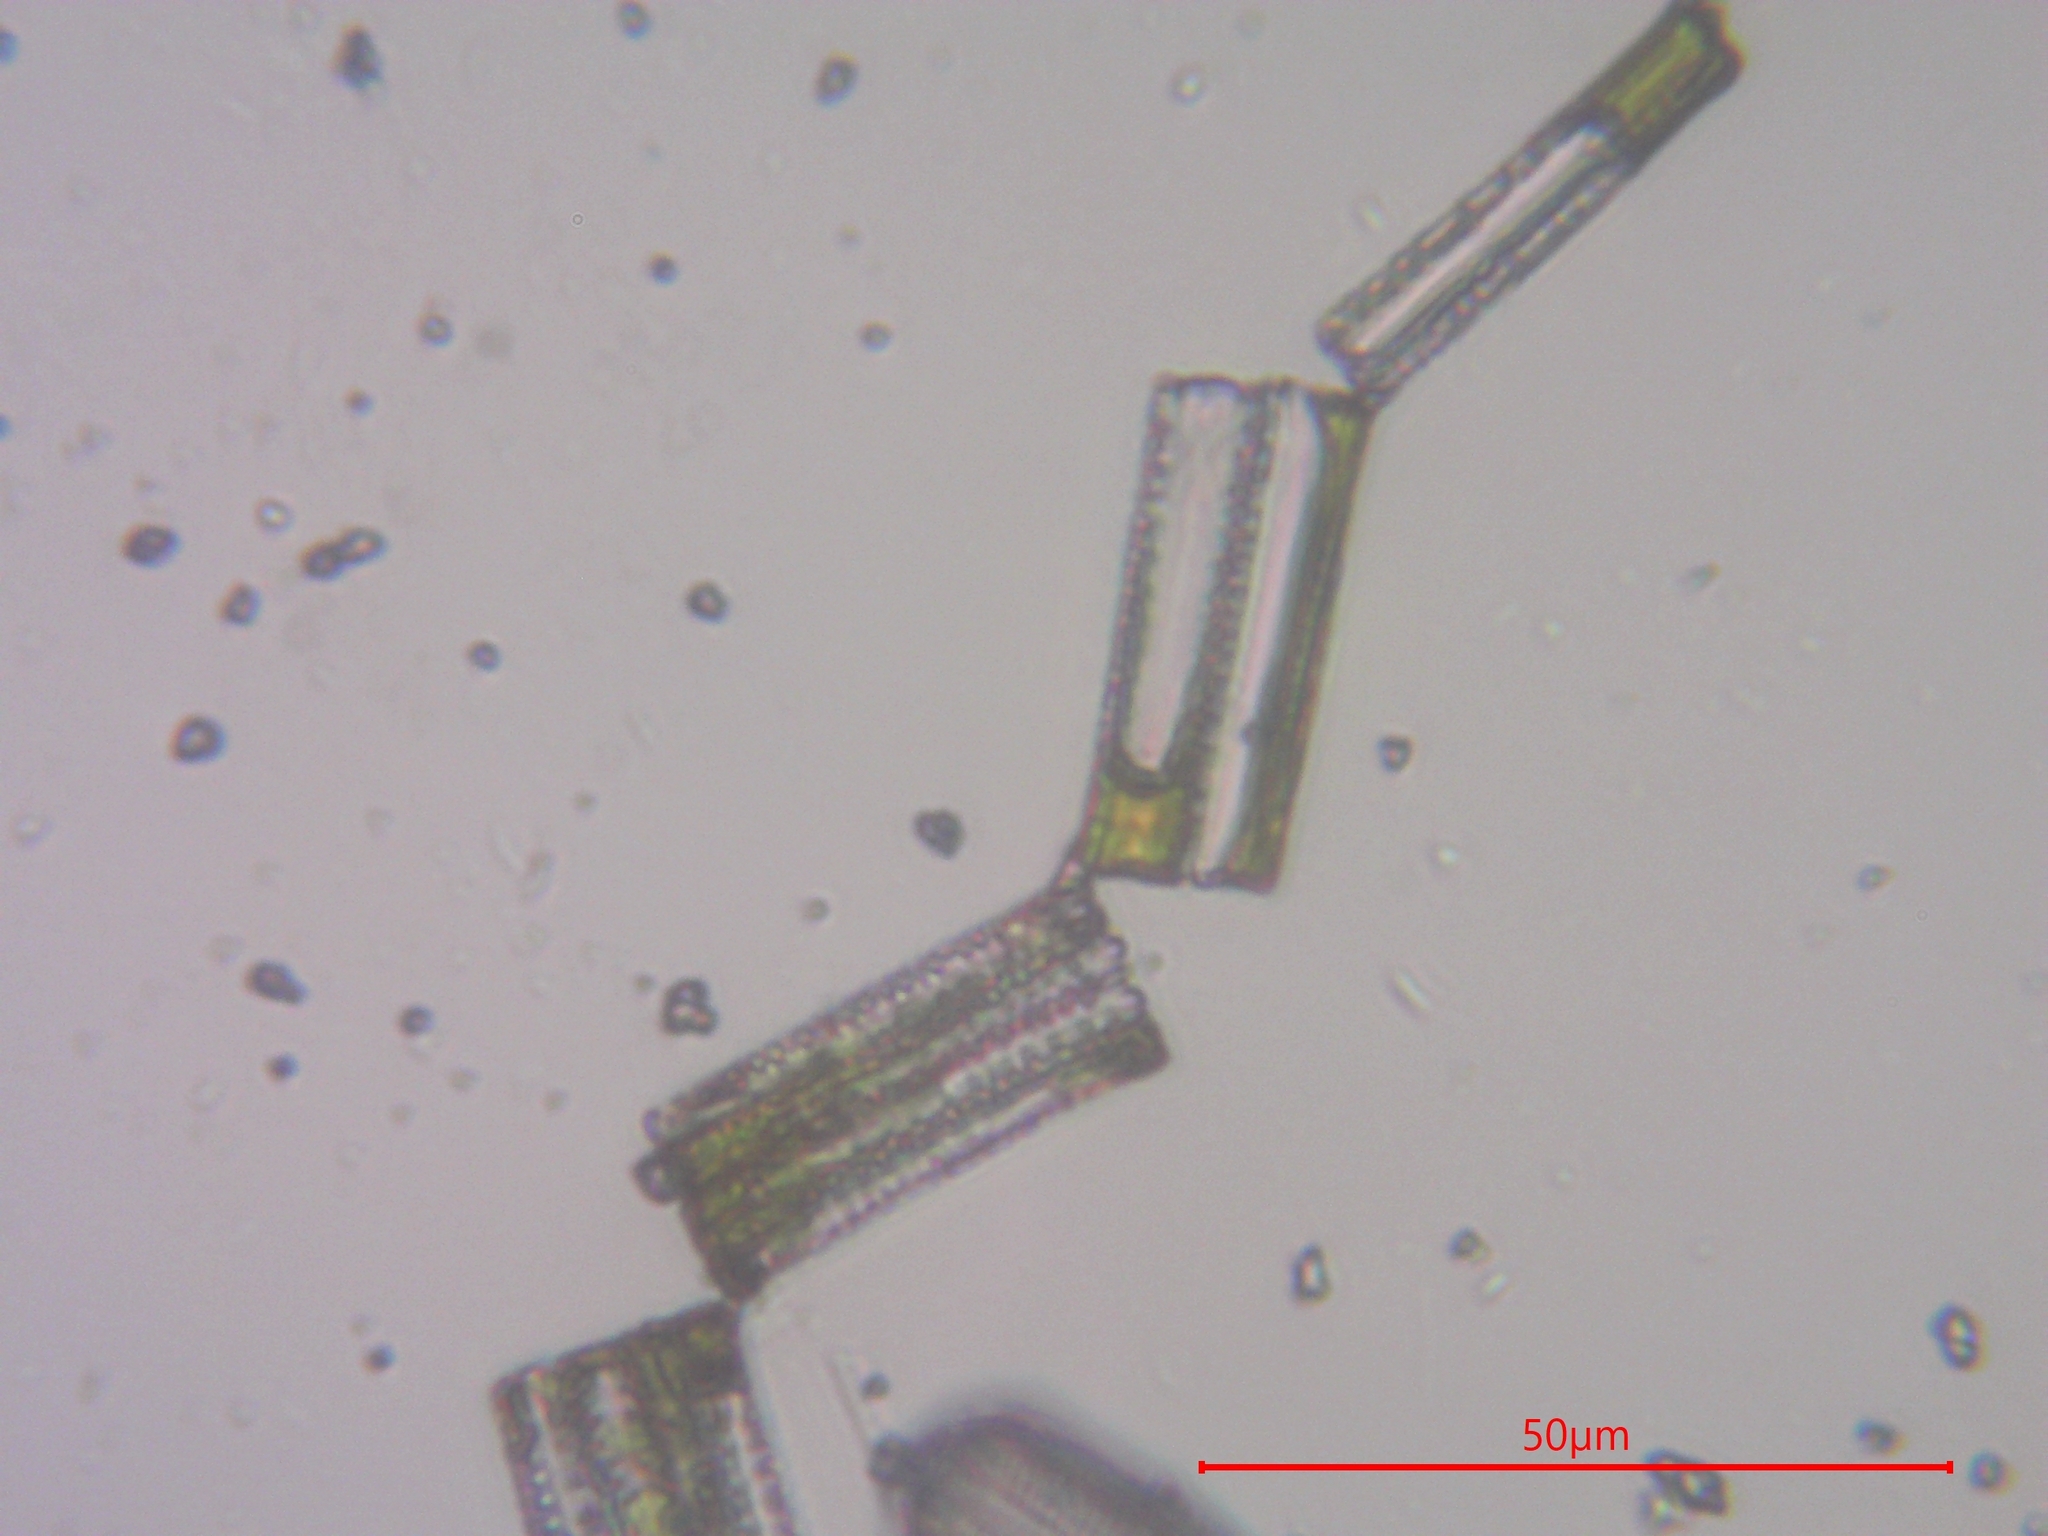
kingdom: Chromista
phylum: Ochrophyta
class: Bacillariophyceae
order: Fragilariales
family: Fragilariaceae
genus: Diatoma
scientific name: Diatoma vulgaris
